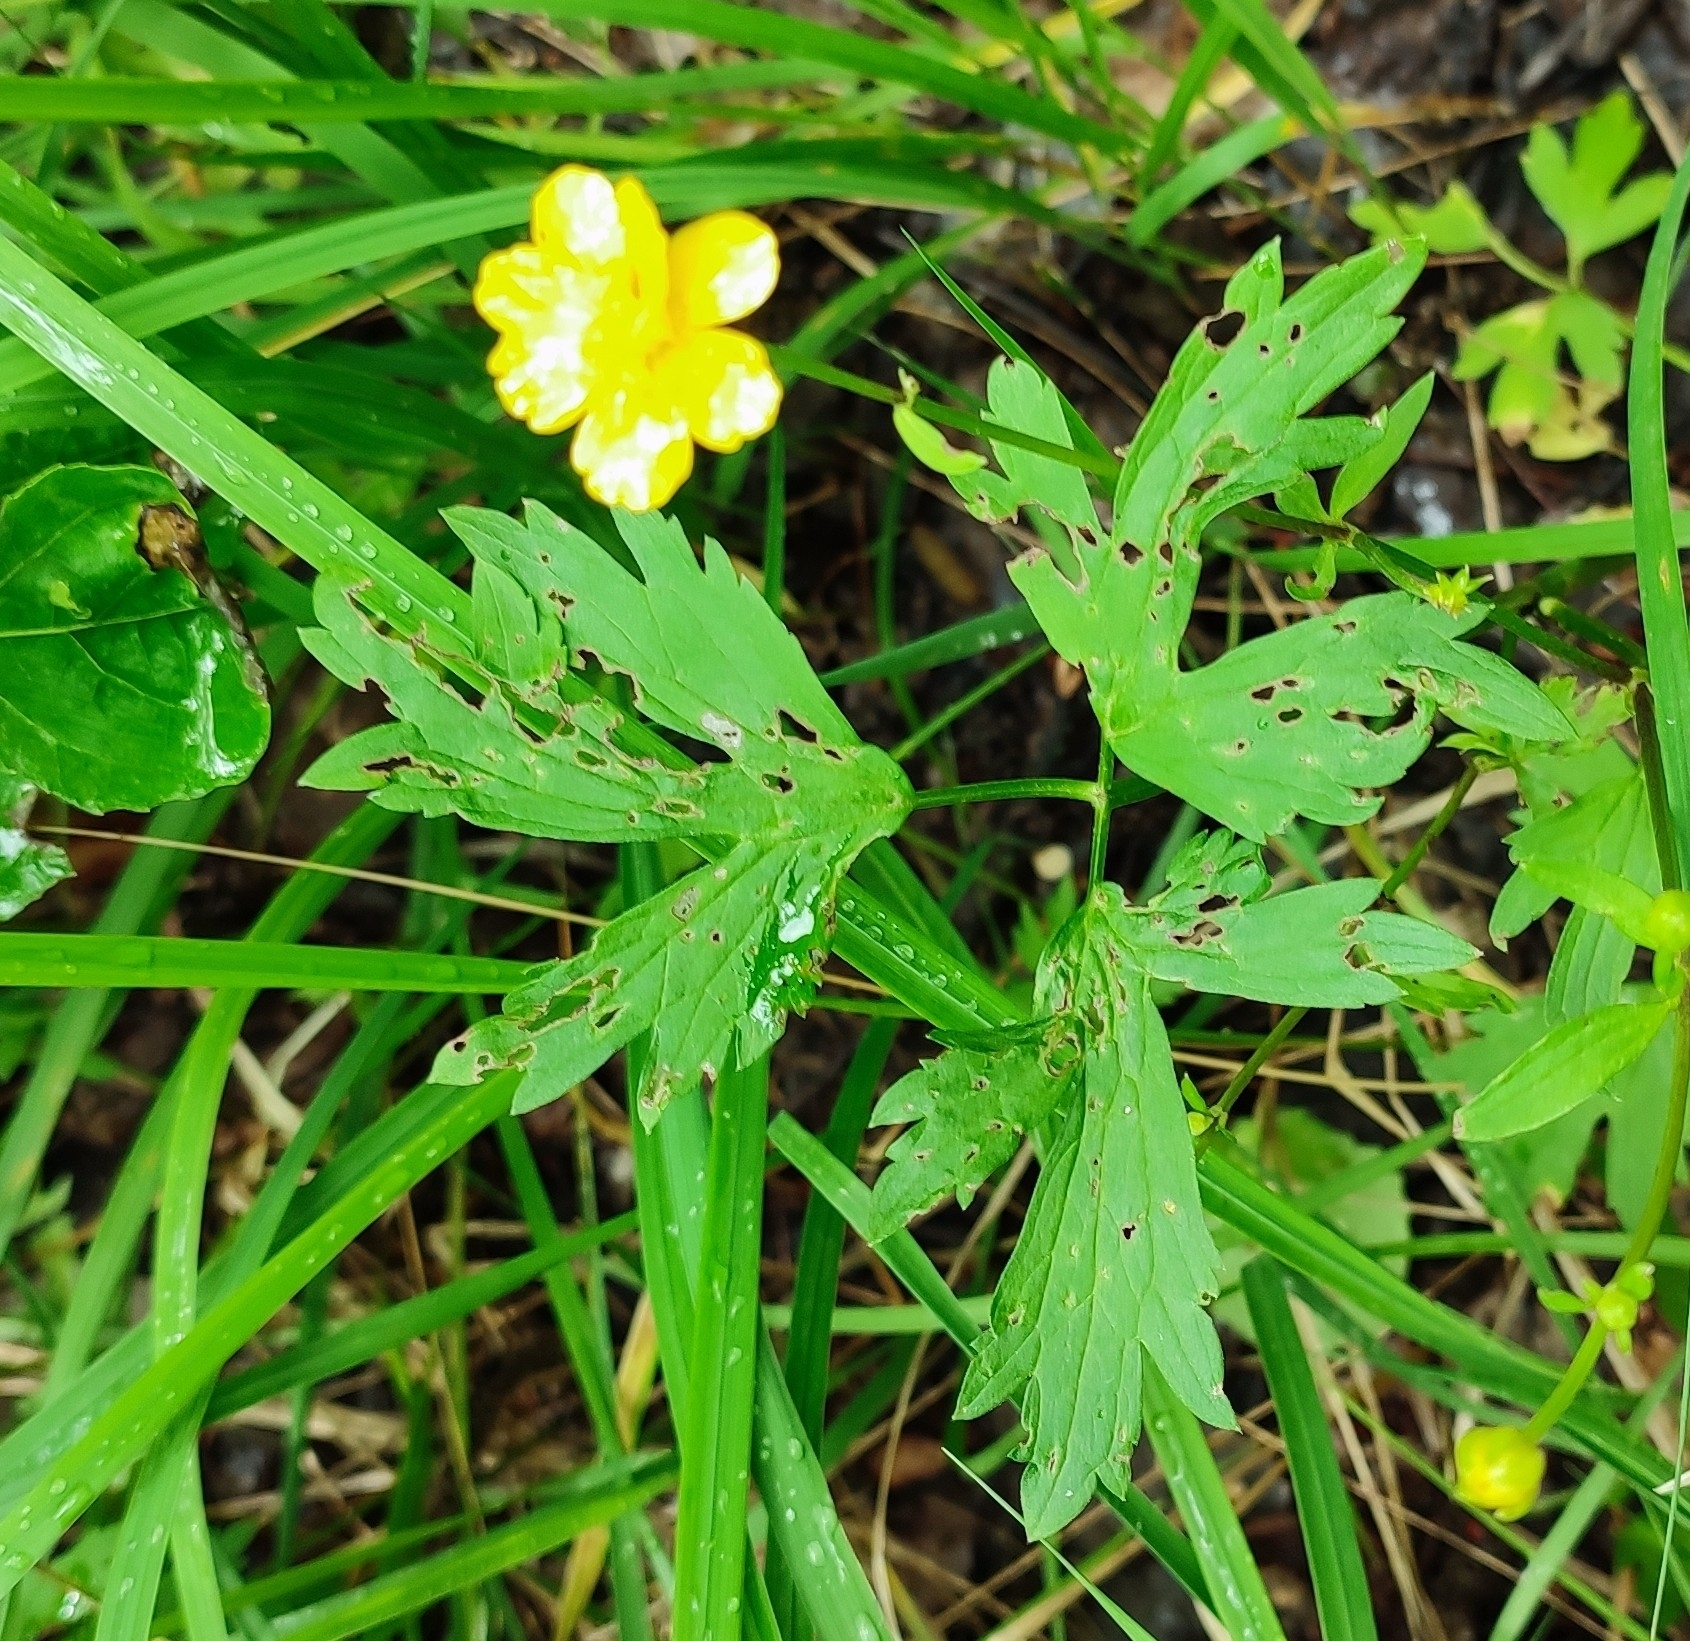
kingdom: Plantae
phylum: Tracheophyta
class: Magnoliopsida
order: Ranunculales
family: Ranunculaceae
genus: Ranunculus
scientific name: Ranunculus repens
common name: Creeping buttercup
